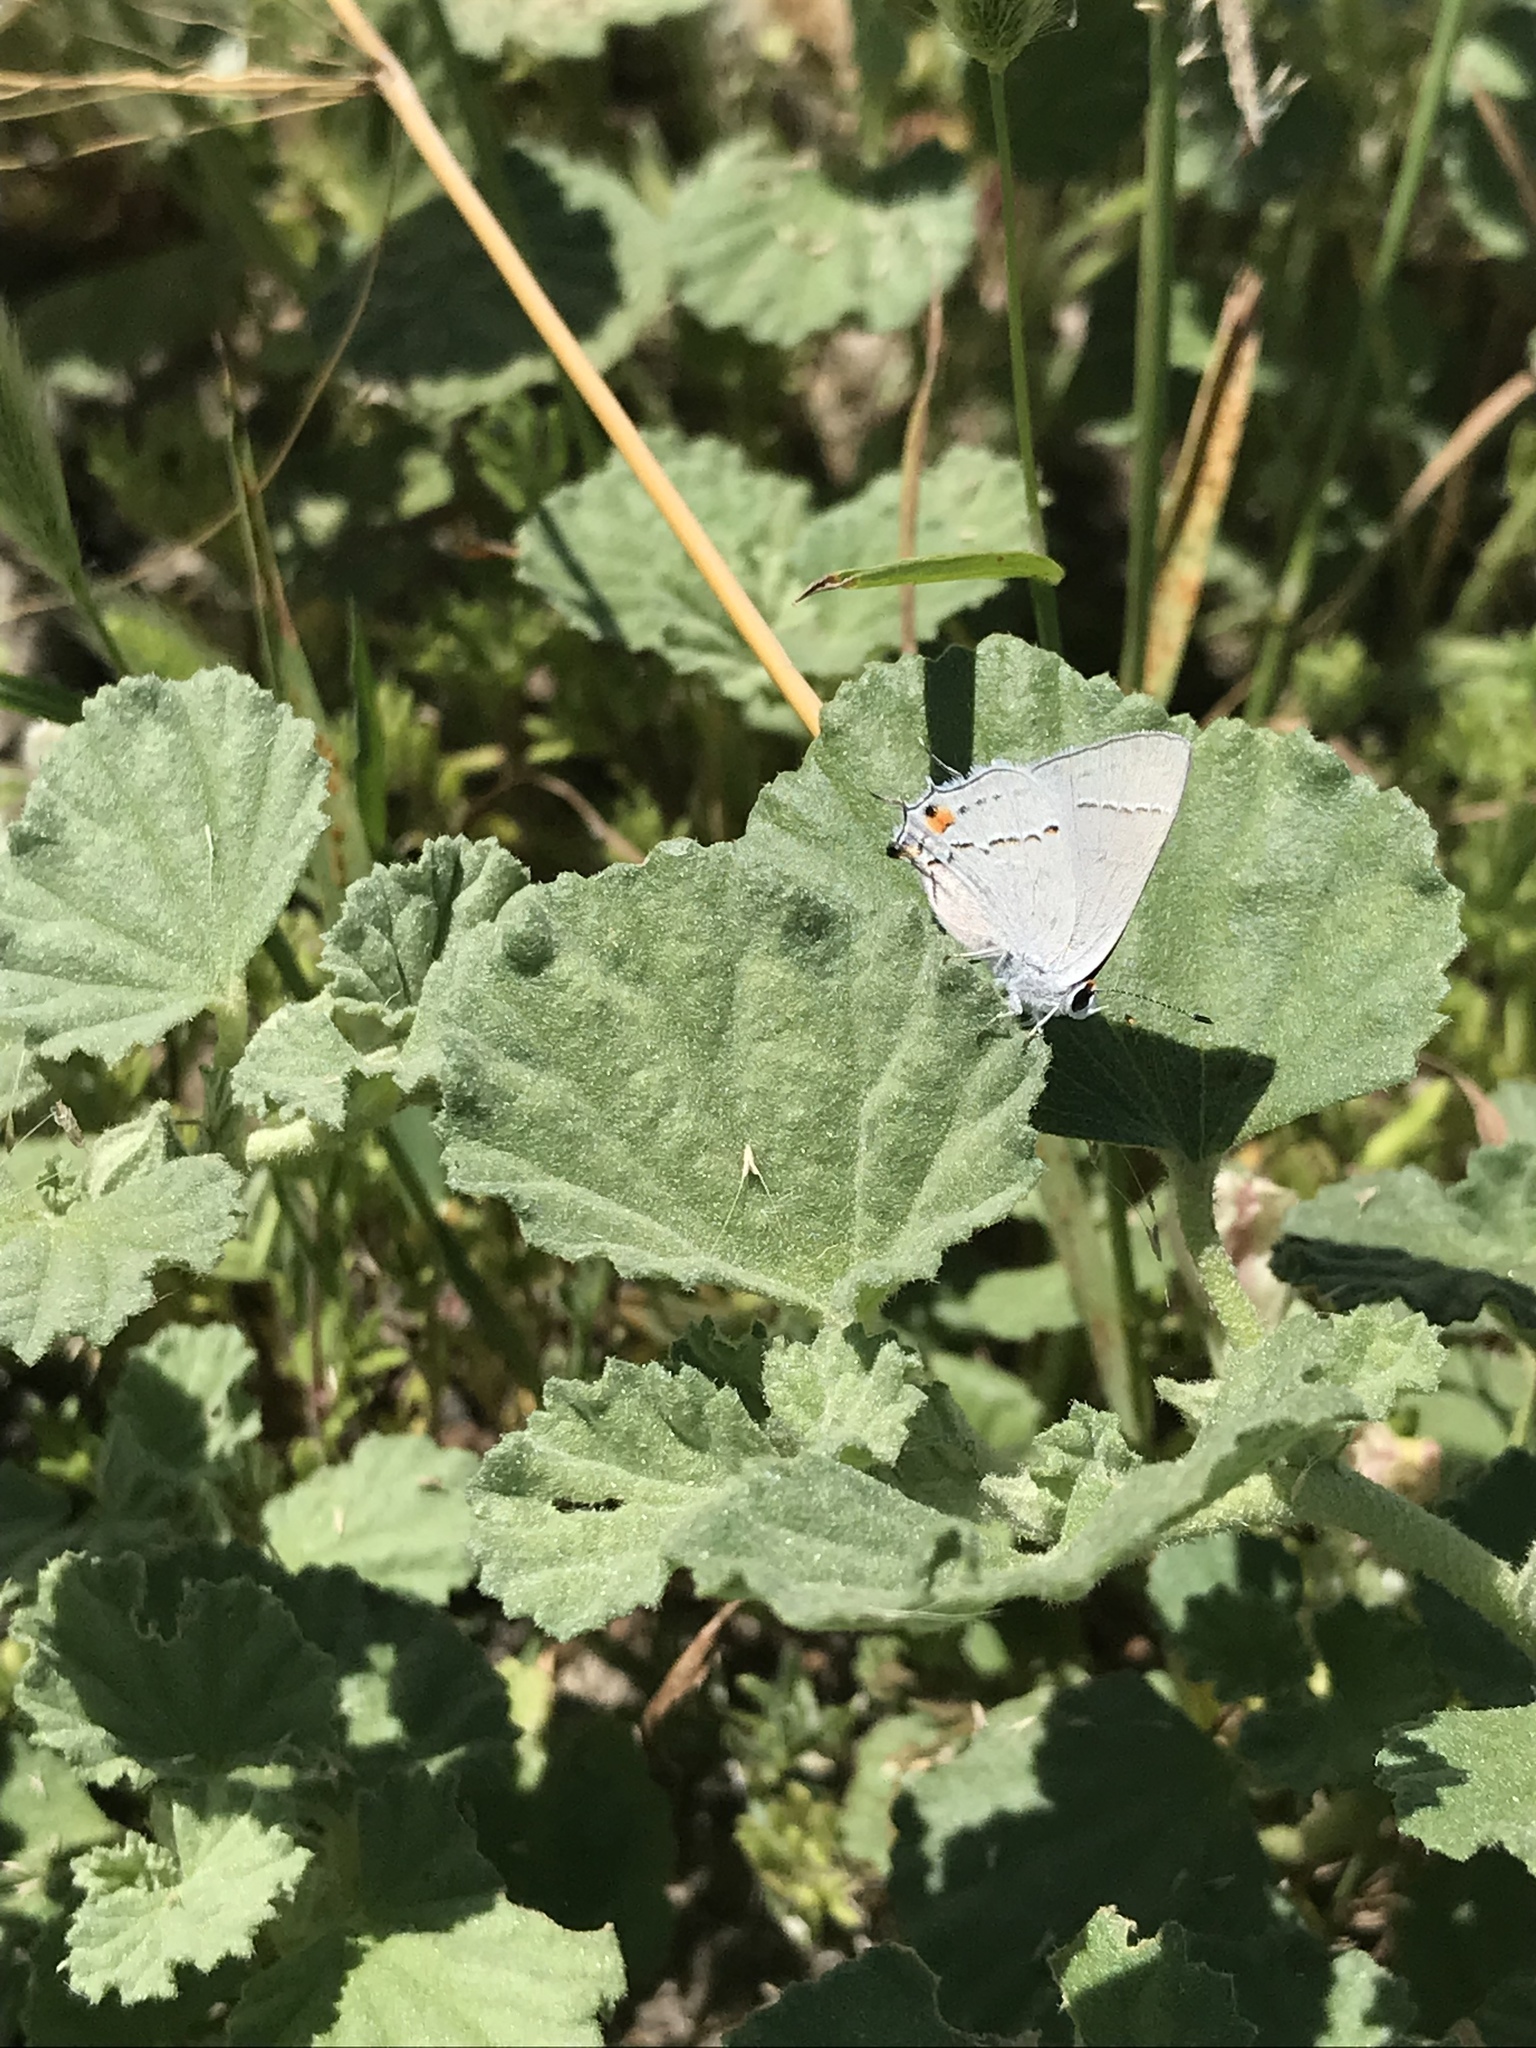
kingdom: Animalia
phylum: Arthropoda
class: Insecta
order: Lepidoptera
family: Lycaenidae
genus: Strymon
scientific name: Strymon melinus
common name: Gray hairstreak
